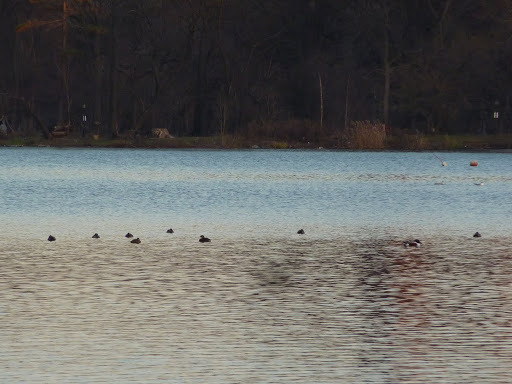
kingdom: Animalia
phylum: Chordata
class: Aves
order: Anseriformes
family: Anatidae
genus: Spatula
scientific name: Spatula clypeata
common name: Northern shoveler
